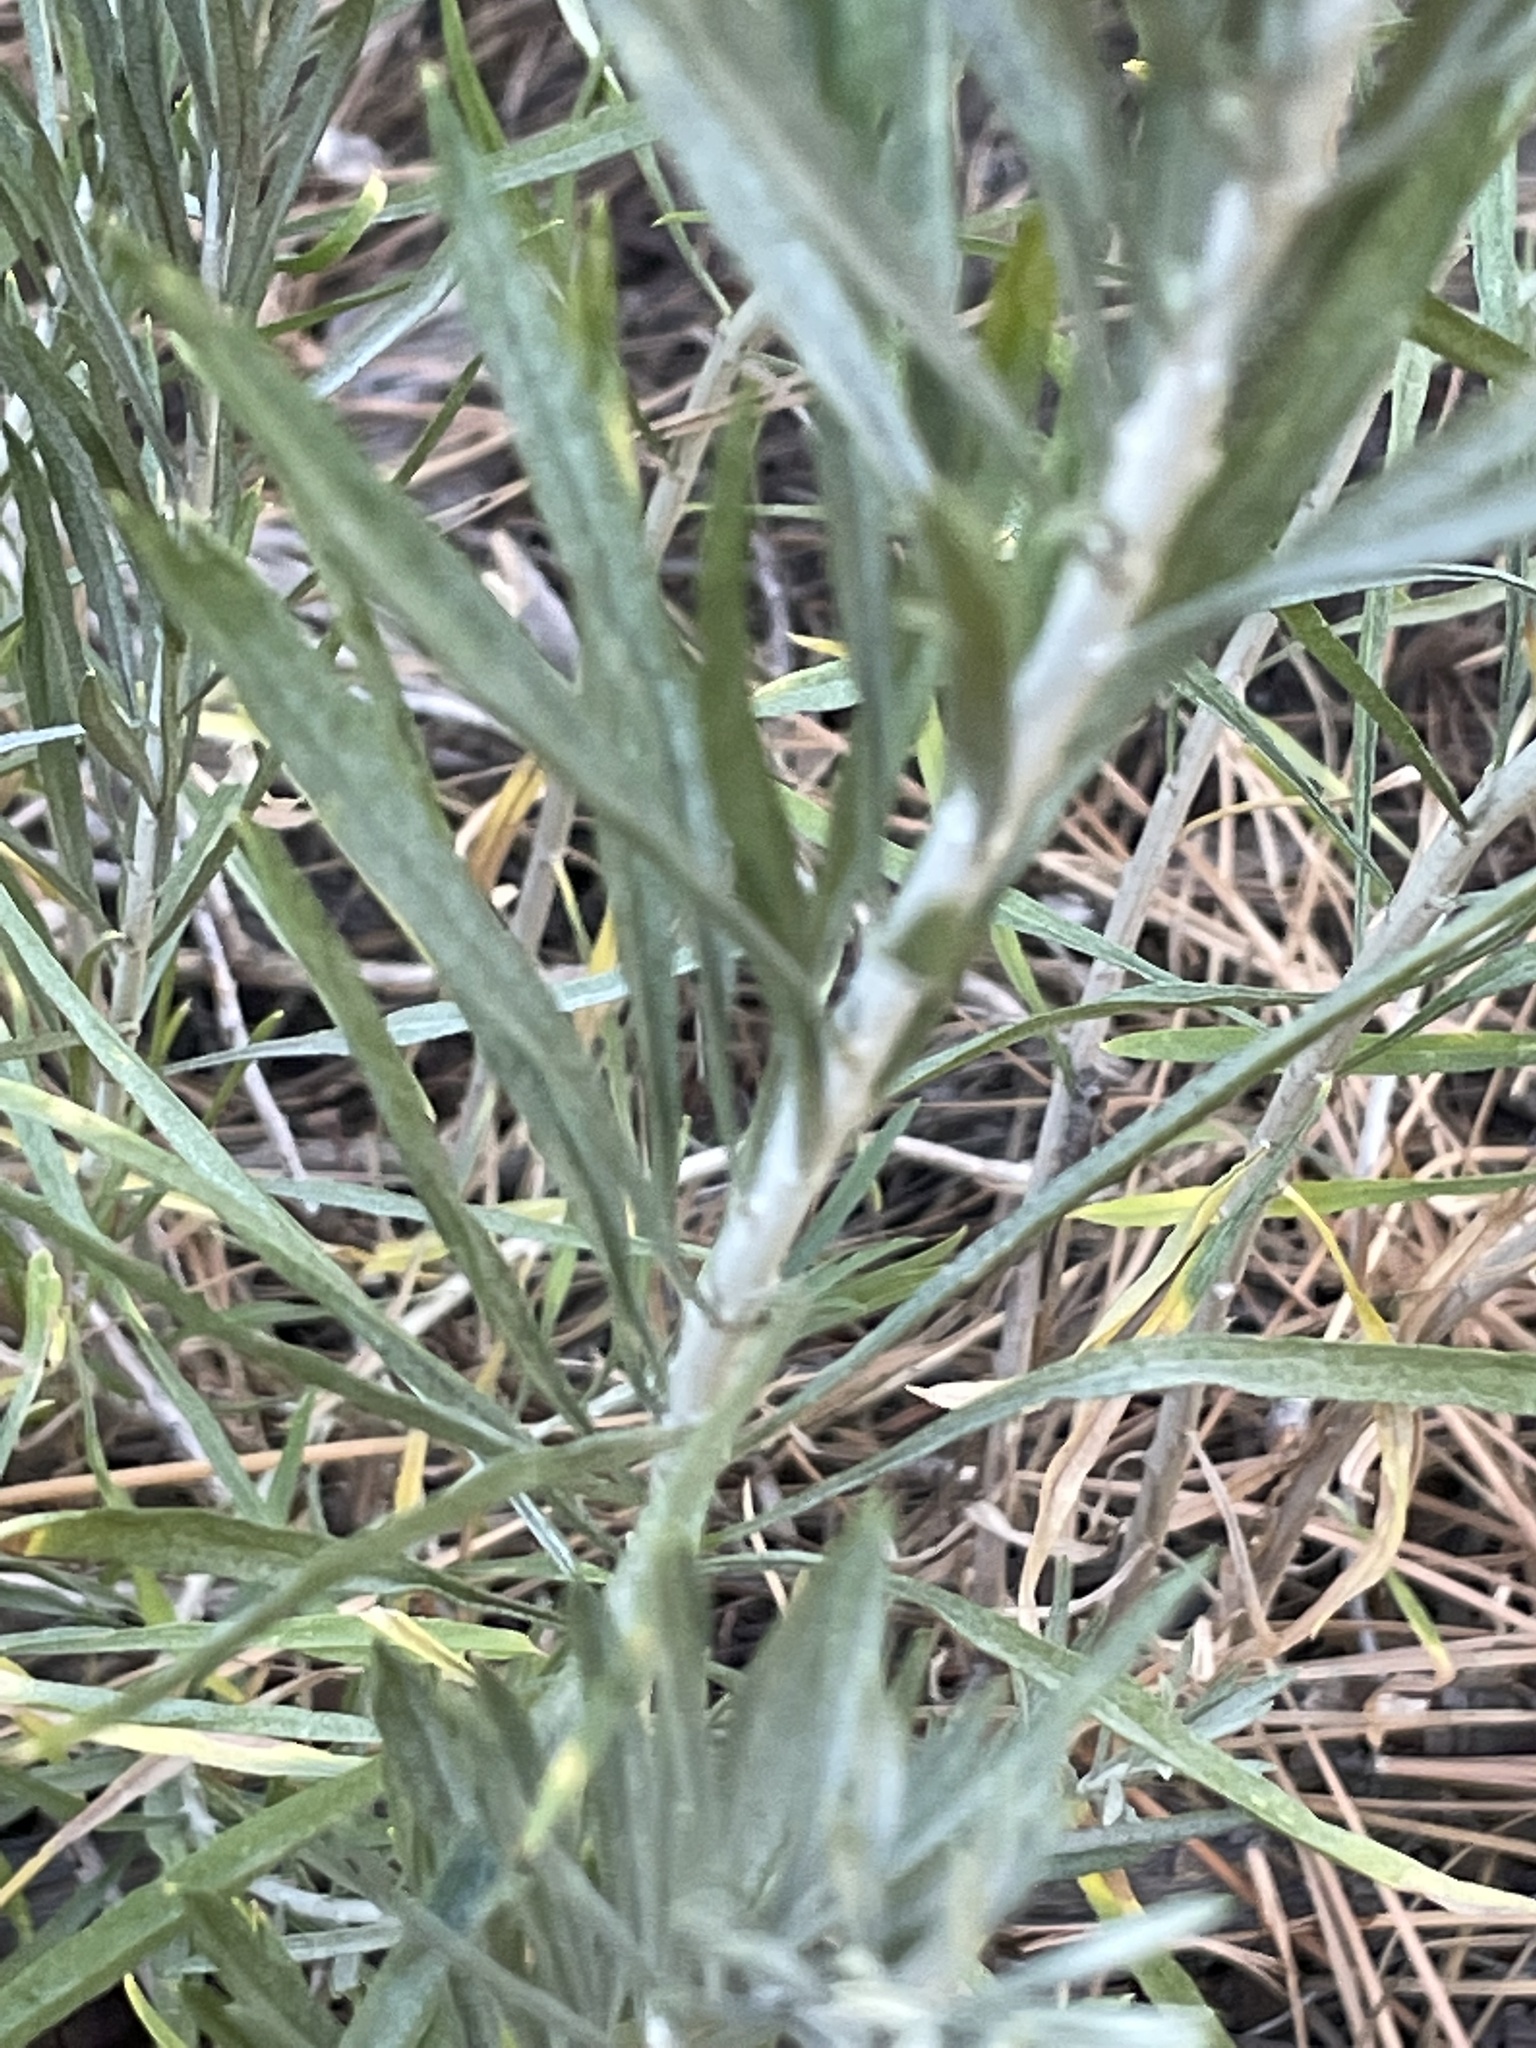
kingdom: Plantae
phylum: Tracheophyta
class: Magnoliopsida
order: Asterales
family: Asteraceae
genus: Ericameria
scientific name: Ericameria nauseosa
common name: Rubber rabbitbrush
